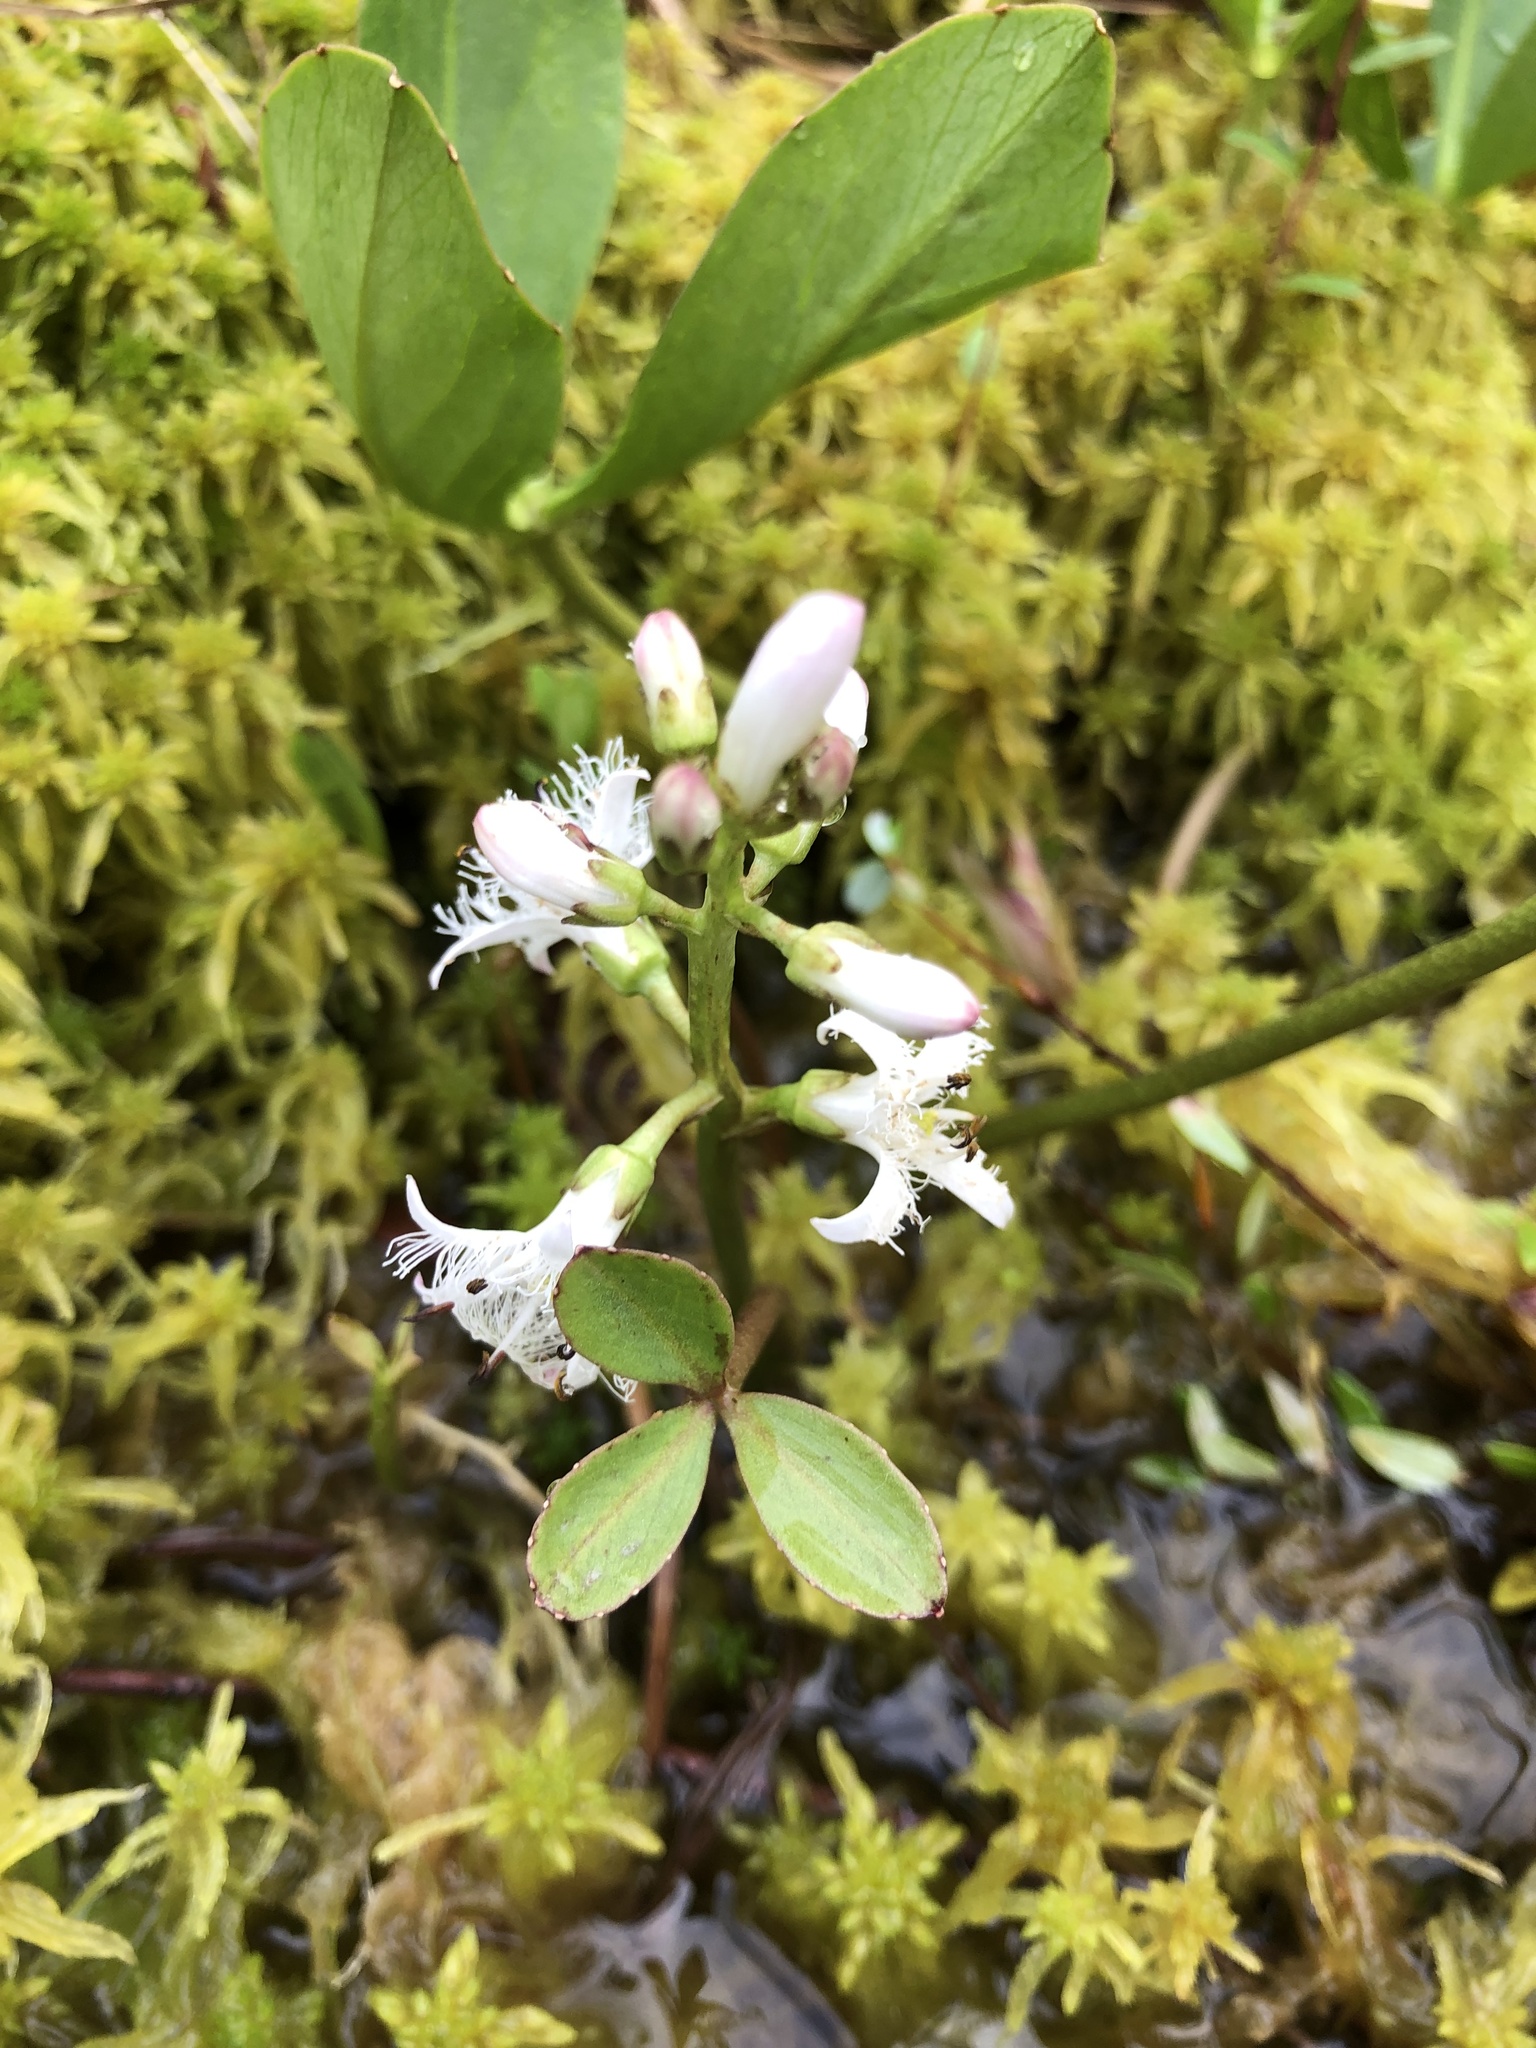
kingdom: Plantae
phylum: Tracheophyta
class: Magnoliopsida
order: Asterales
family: Menyanthaceae
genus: Menyanthes
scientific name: Menyanthes trifoliata
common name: Bogbean
